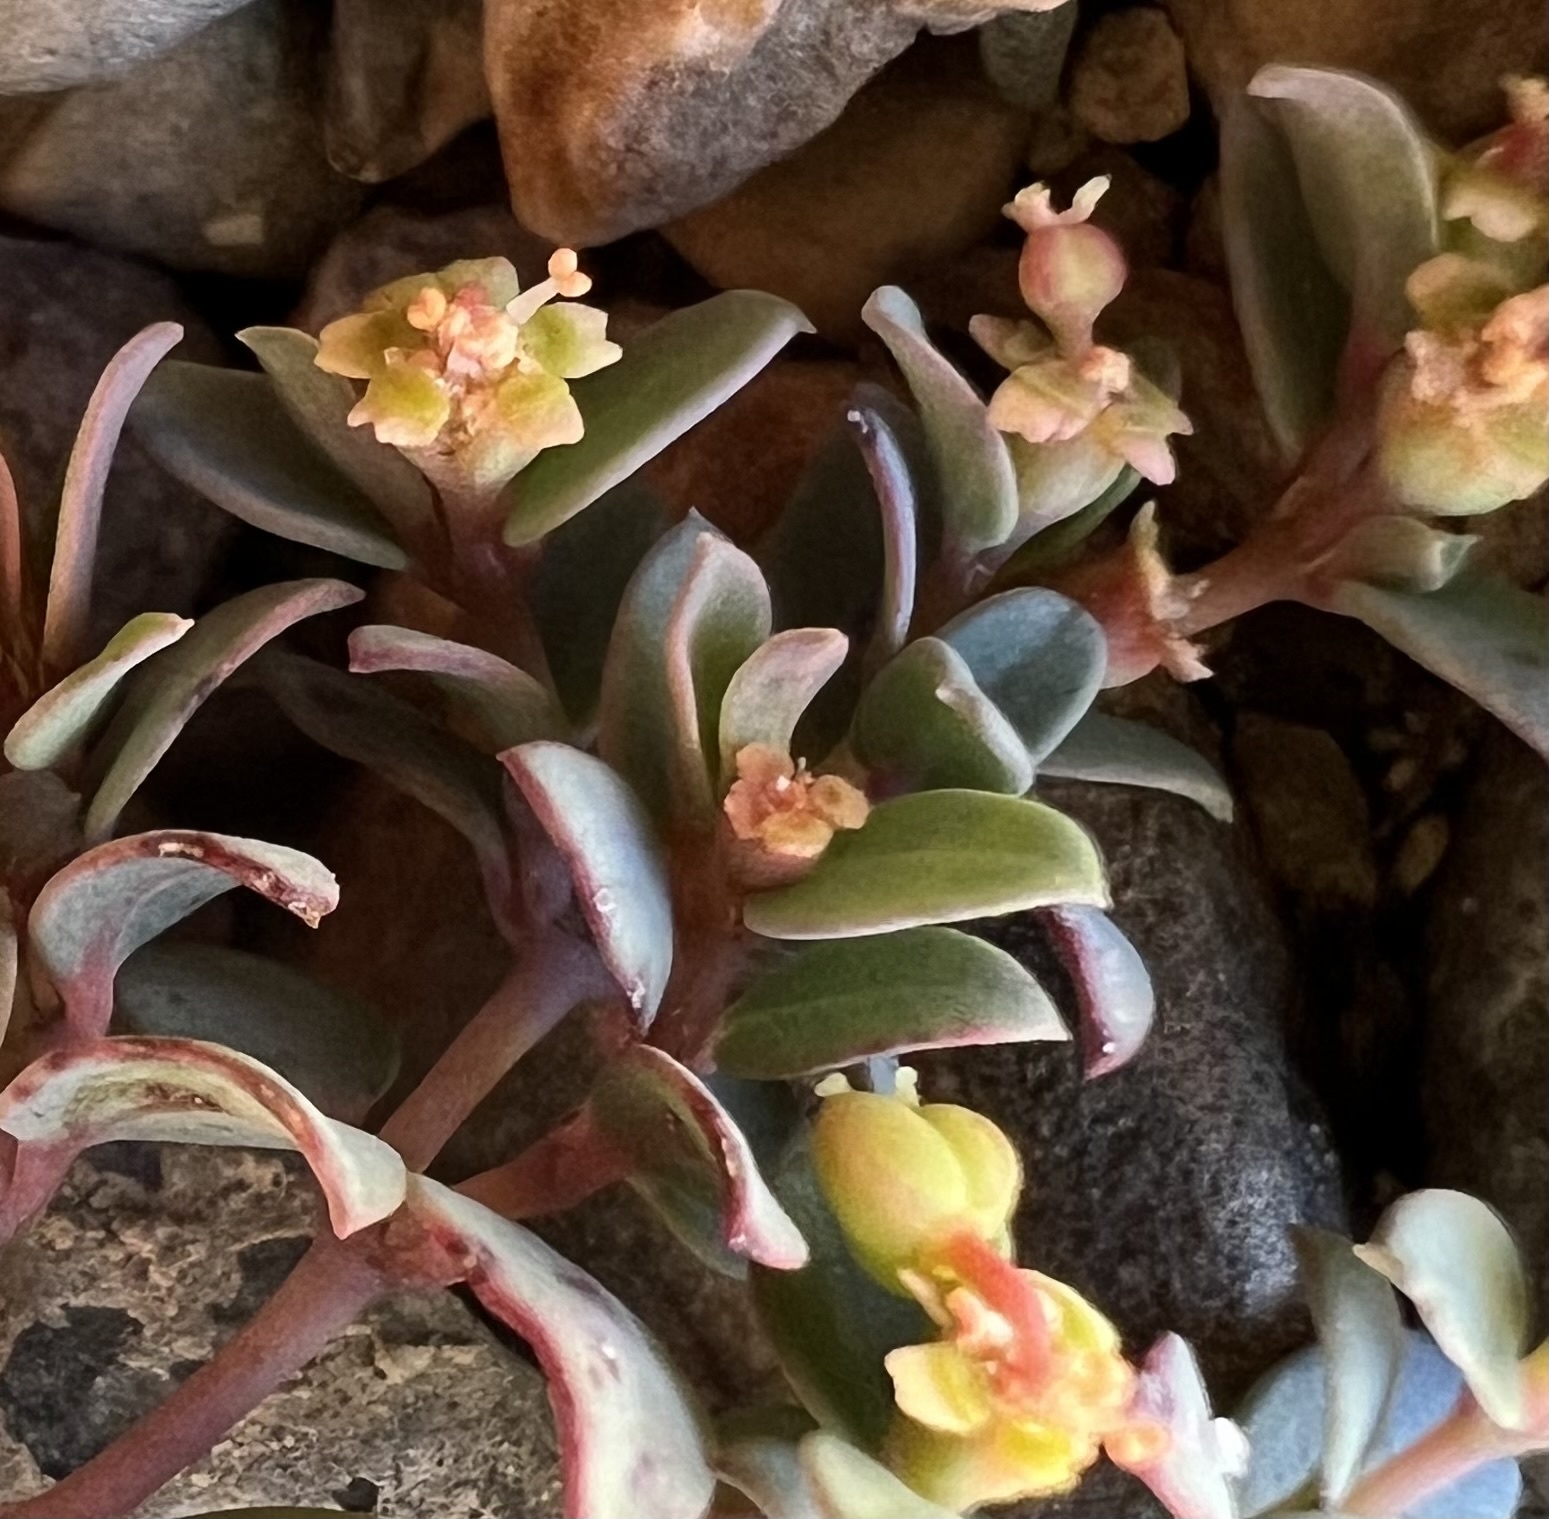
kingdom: Plantae
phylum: Tracheophyta
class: Magnoliopsida
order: Malpighiales
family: Euphorbiaceae
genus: Euphorbia
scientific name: Euphorbia fendleri
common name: Fendler's euphorbia
